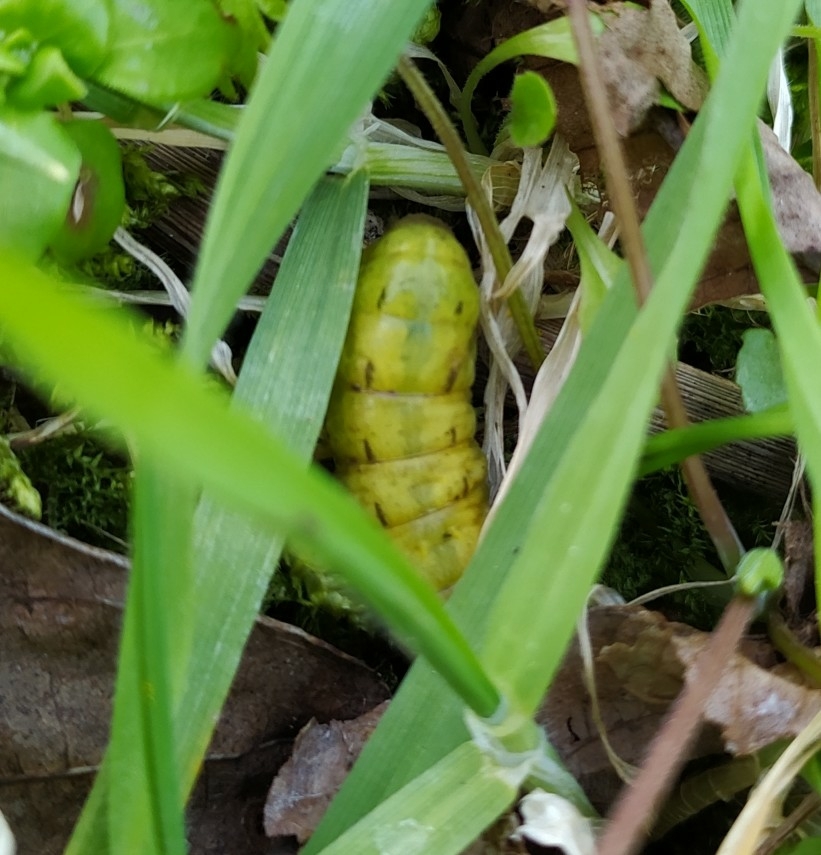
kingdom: Animalia
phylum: Arthropoda
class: Insecta
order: Lepidoptera
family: Noctuidae
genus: Noctua
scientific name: Noctua pronuba
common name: Large yellow underwing
